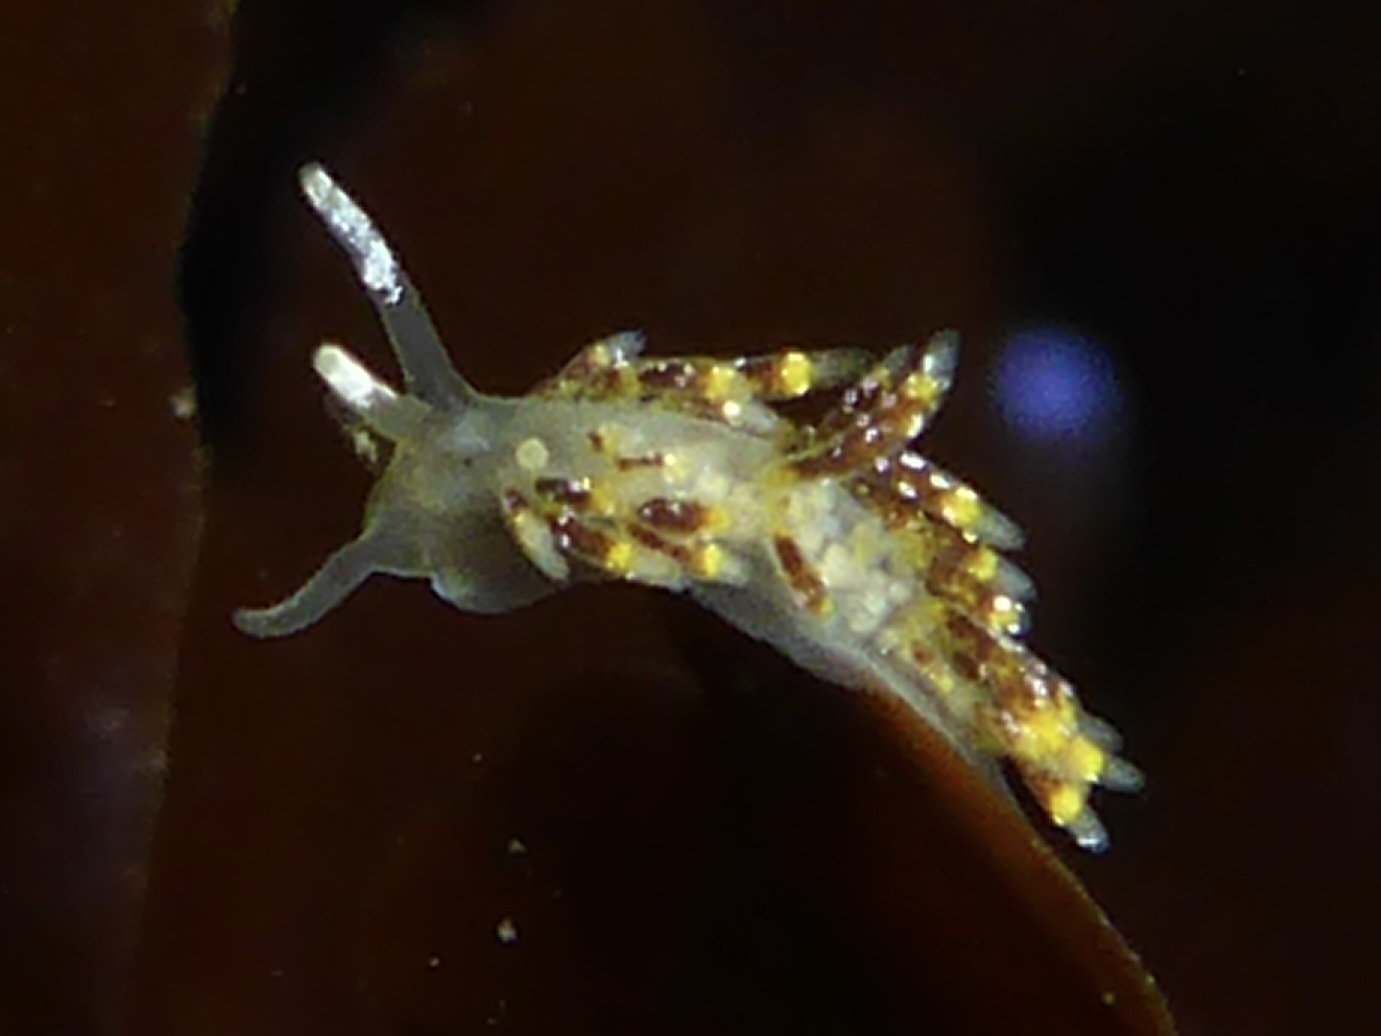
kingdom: Animalia
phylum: Mollusca
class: Gastropoda
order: Nudibranchia
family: Trinchesiidae
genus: Zelentia
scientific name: Zelentia fulgens
